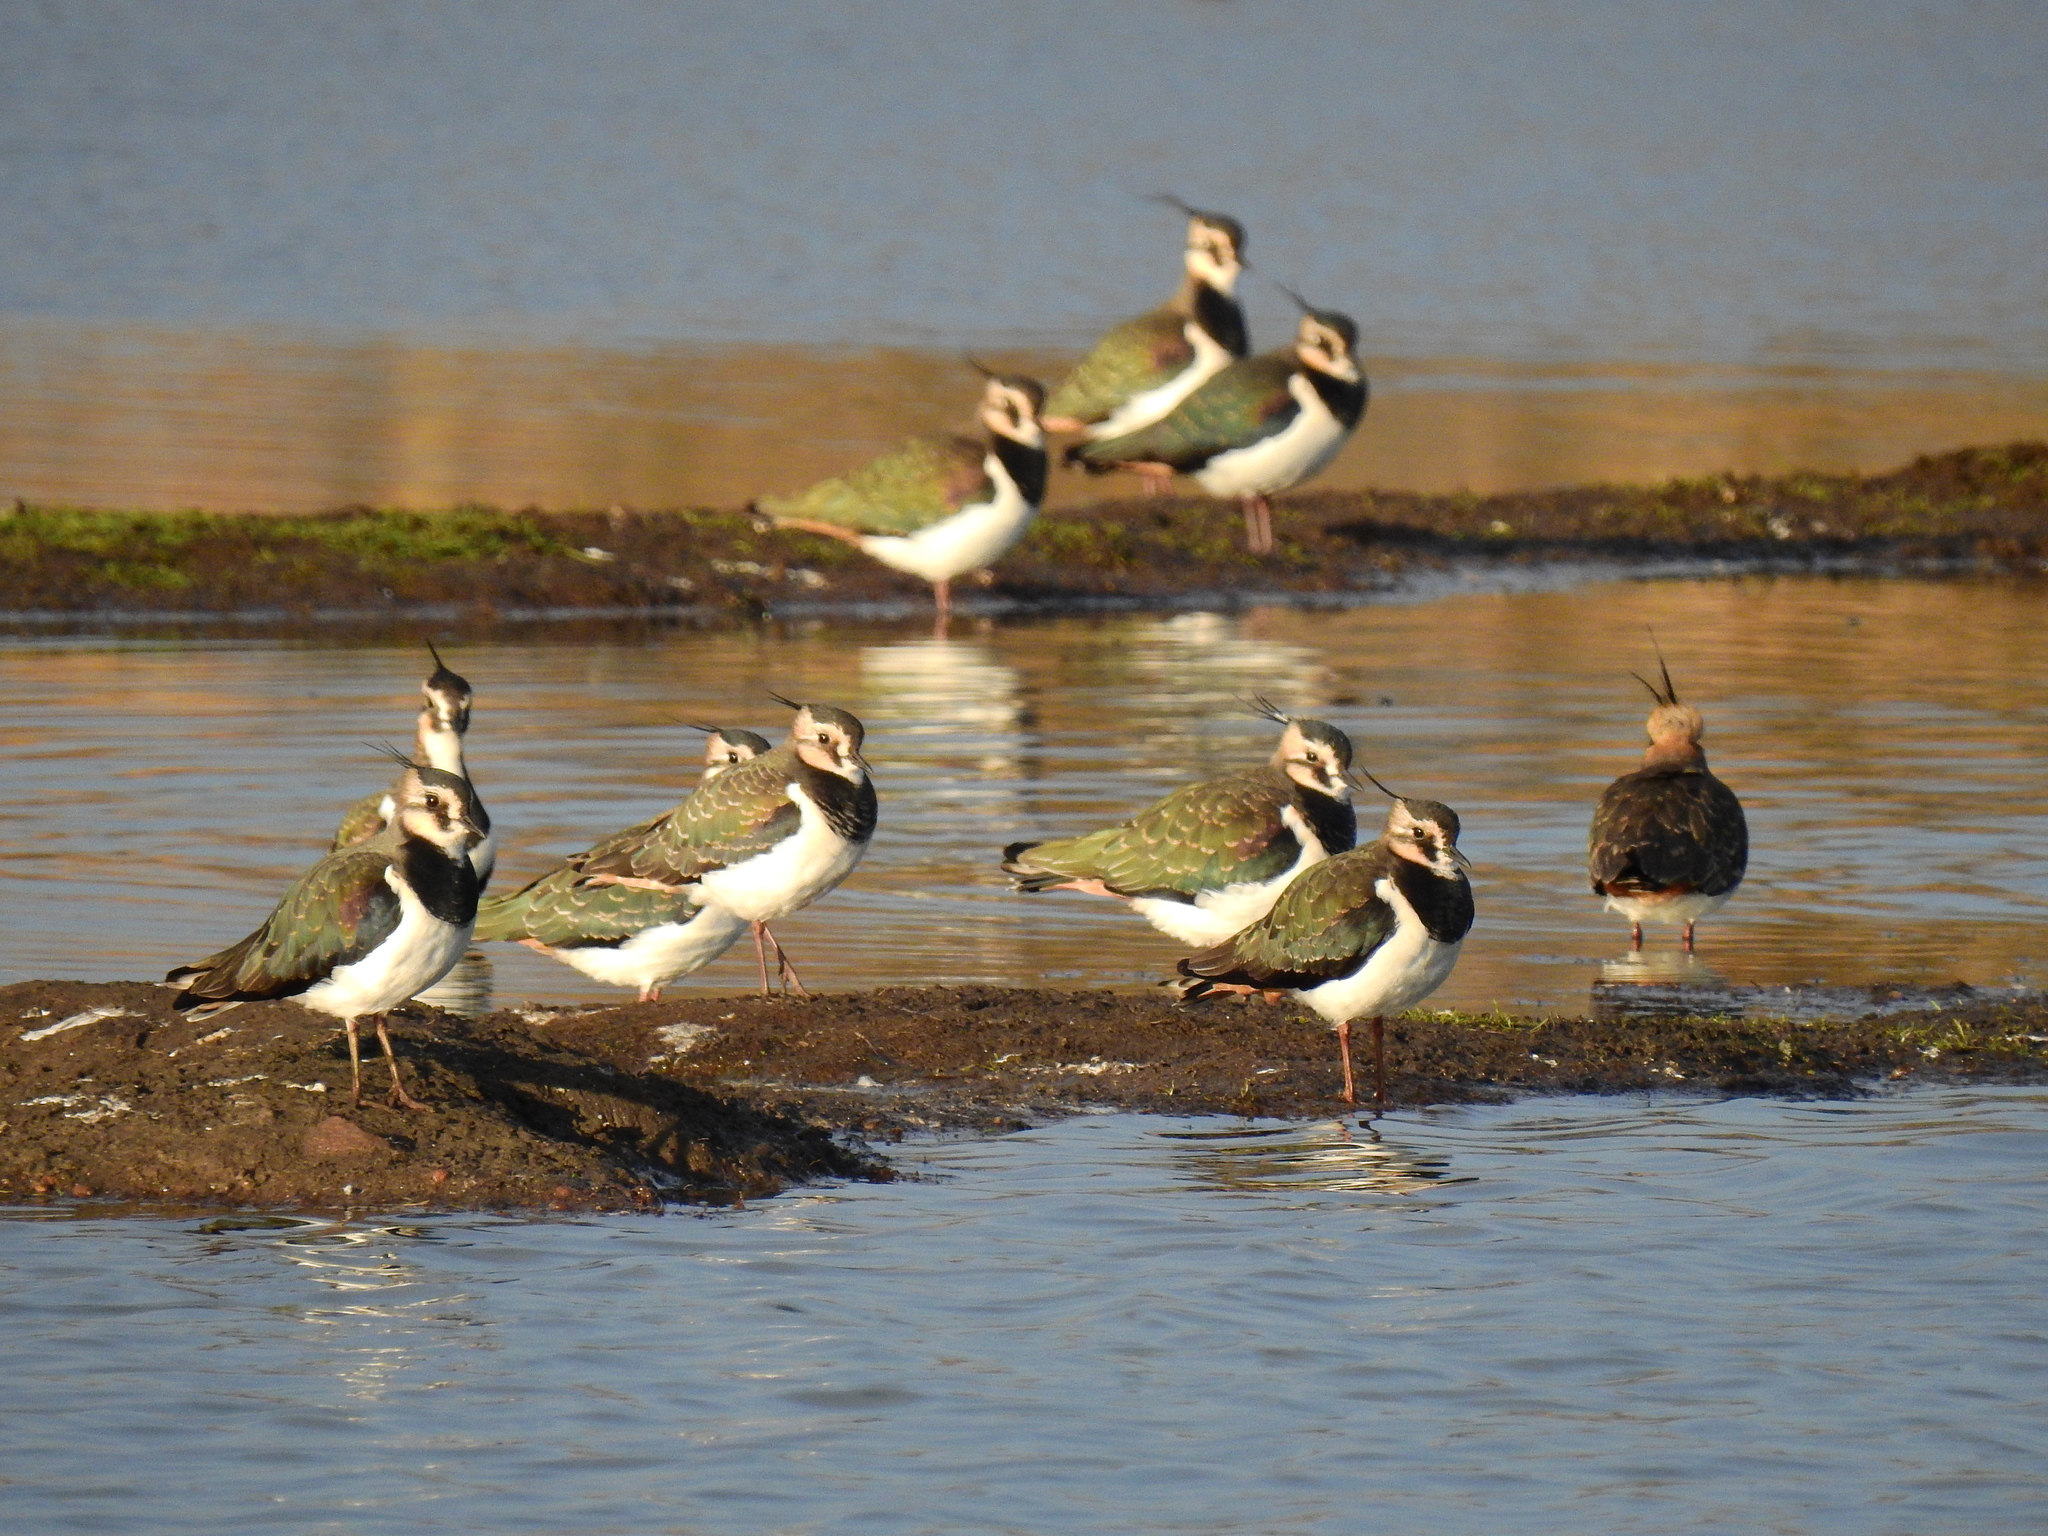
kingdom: Animalia
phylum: Chordata
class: Aves
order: Charadriiformes
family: Charadriidae
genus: Vanellus
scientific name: Vanellus vanellus
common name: Northern lapwing
